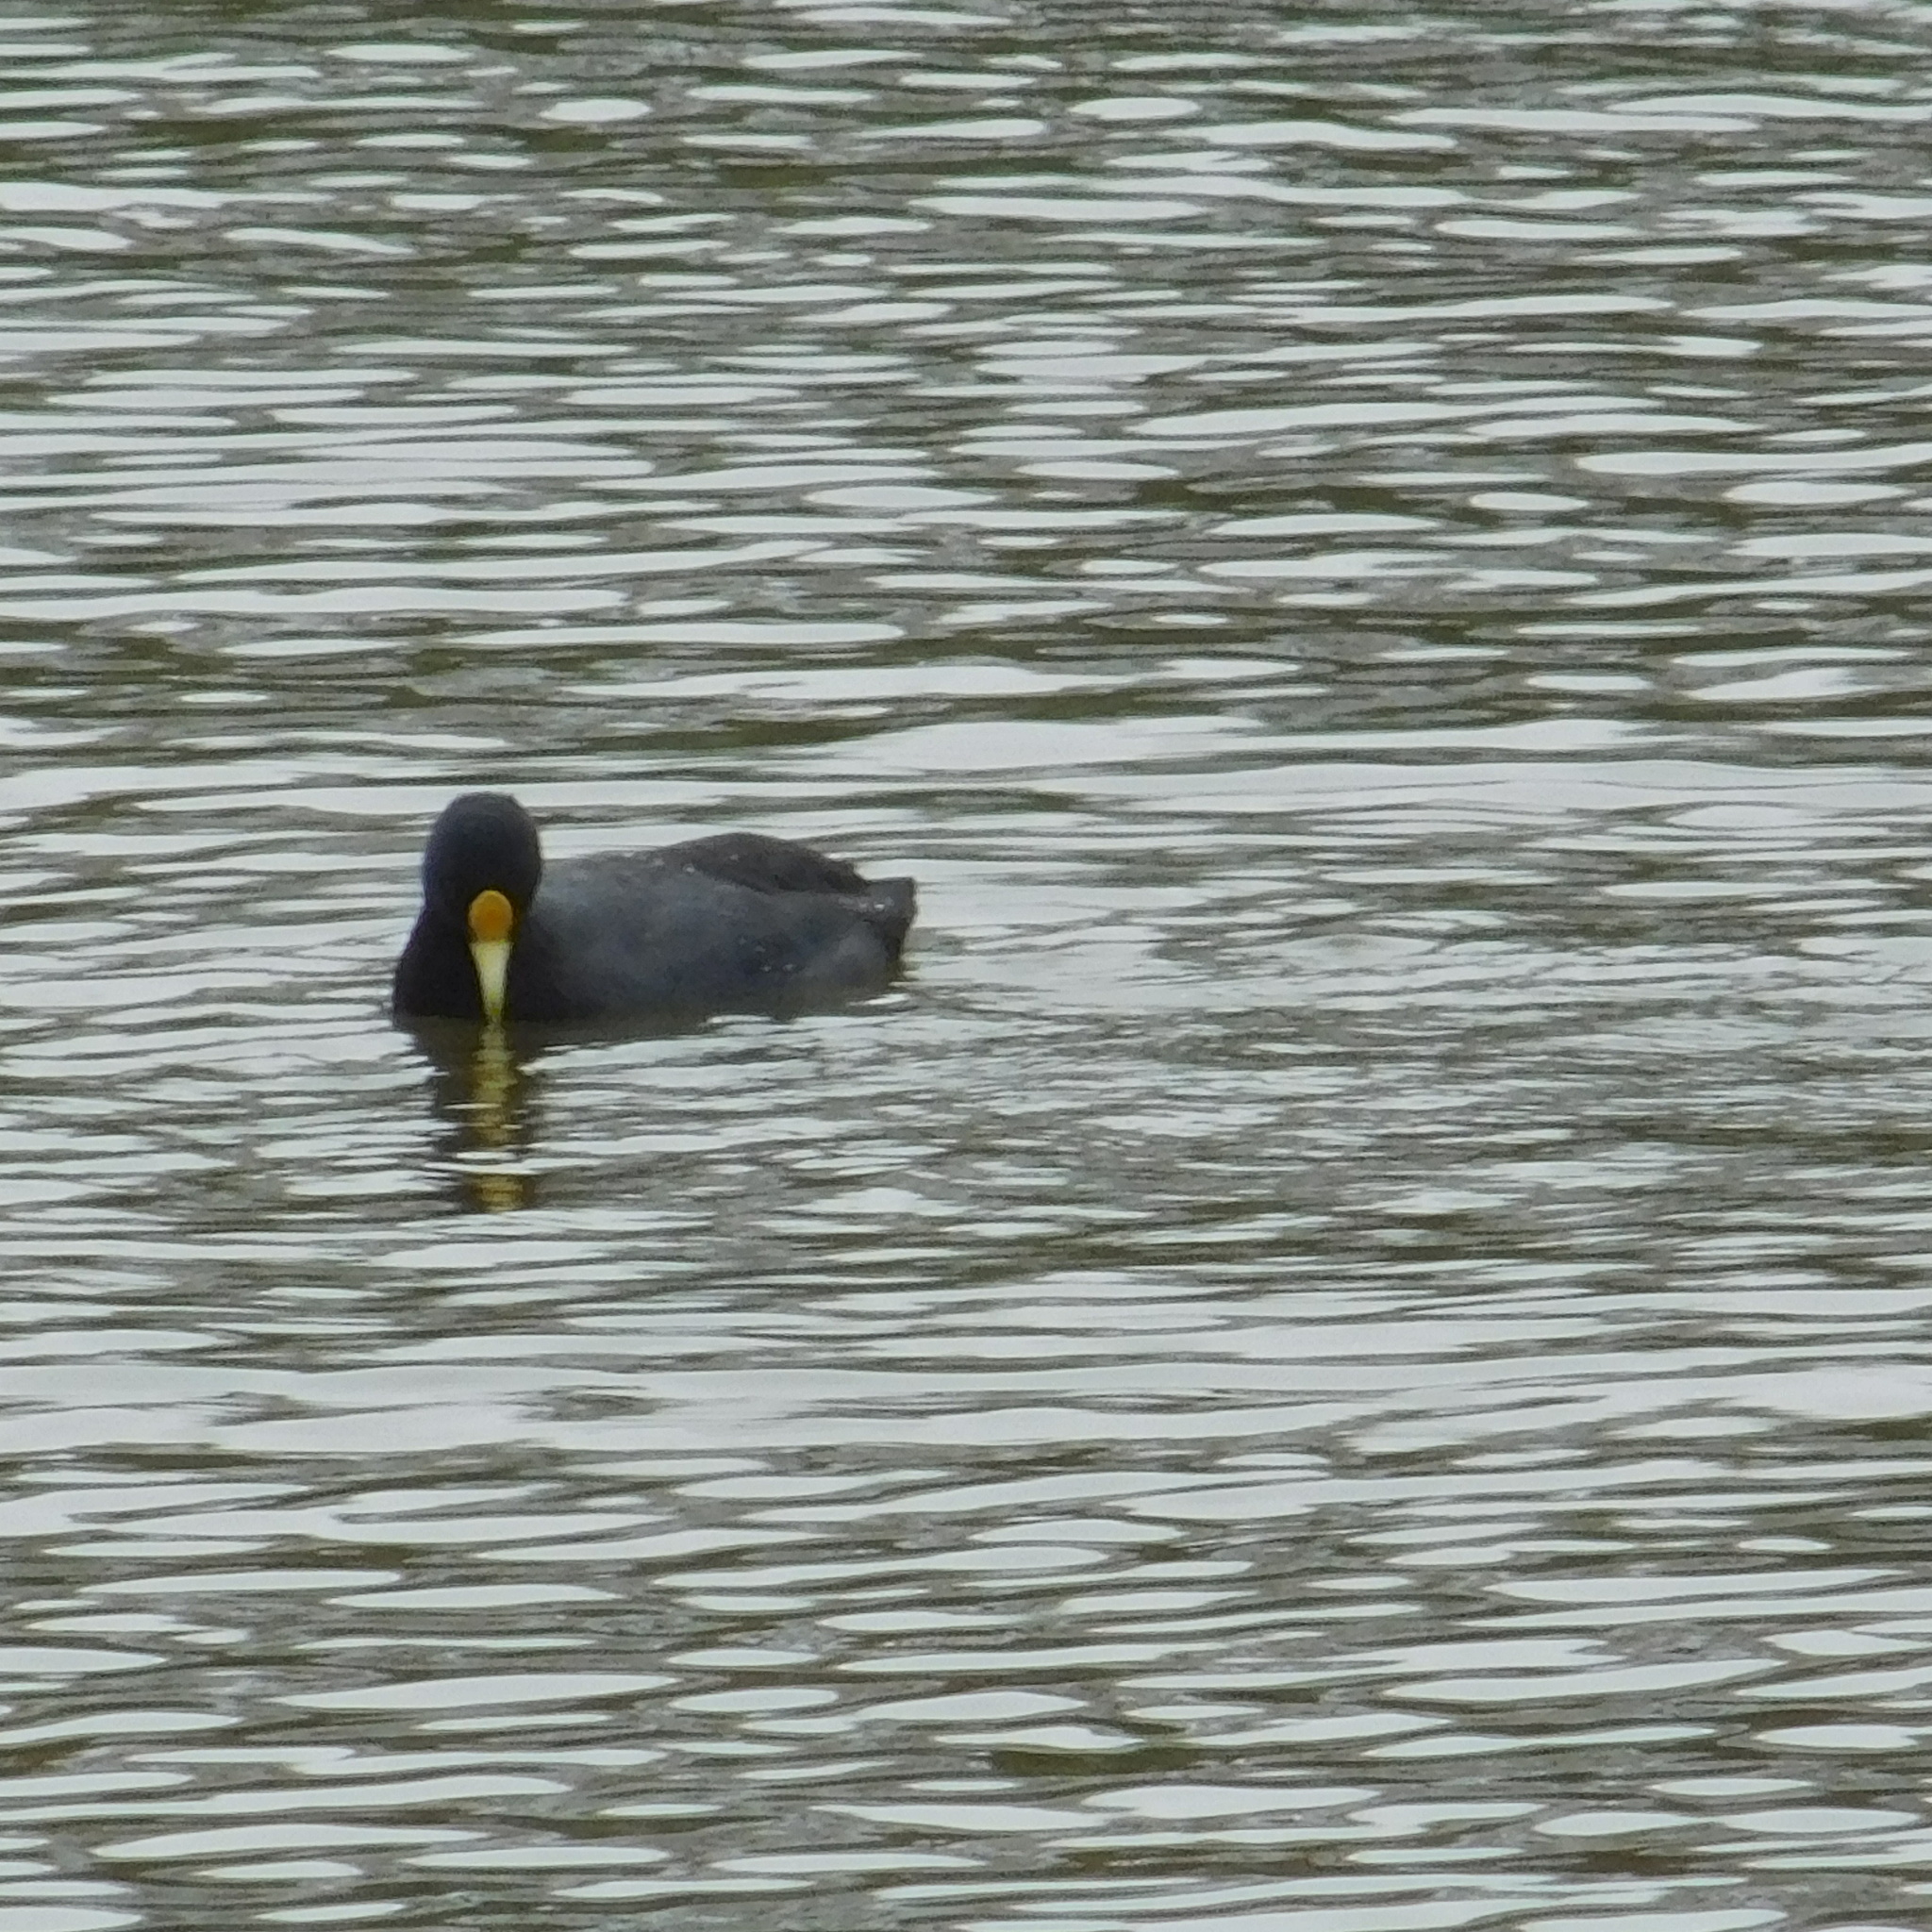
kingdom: Animalia
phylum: Chordata
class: Aves
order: Gruiformes
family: Rallidae
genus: Fulica
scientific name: Fulica leucoptera
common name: White-winged coot
